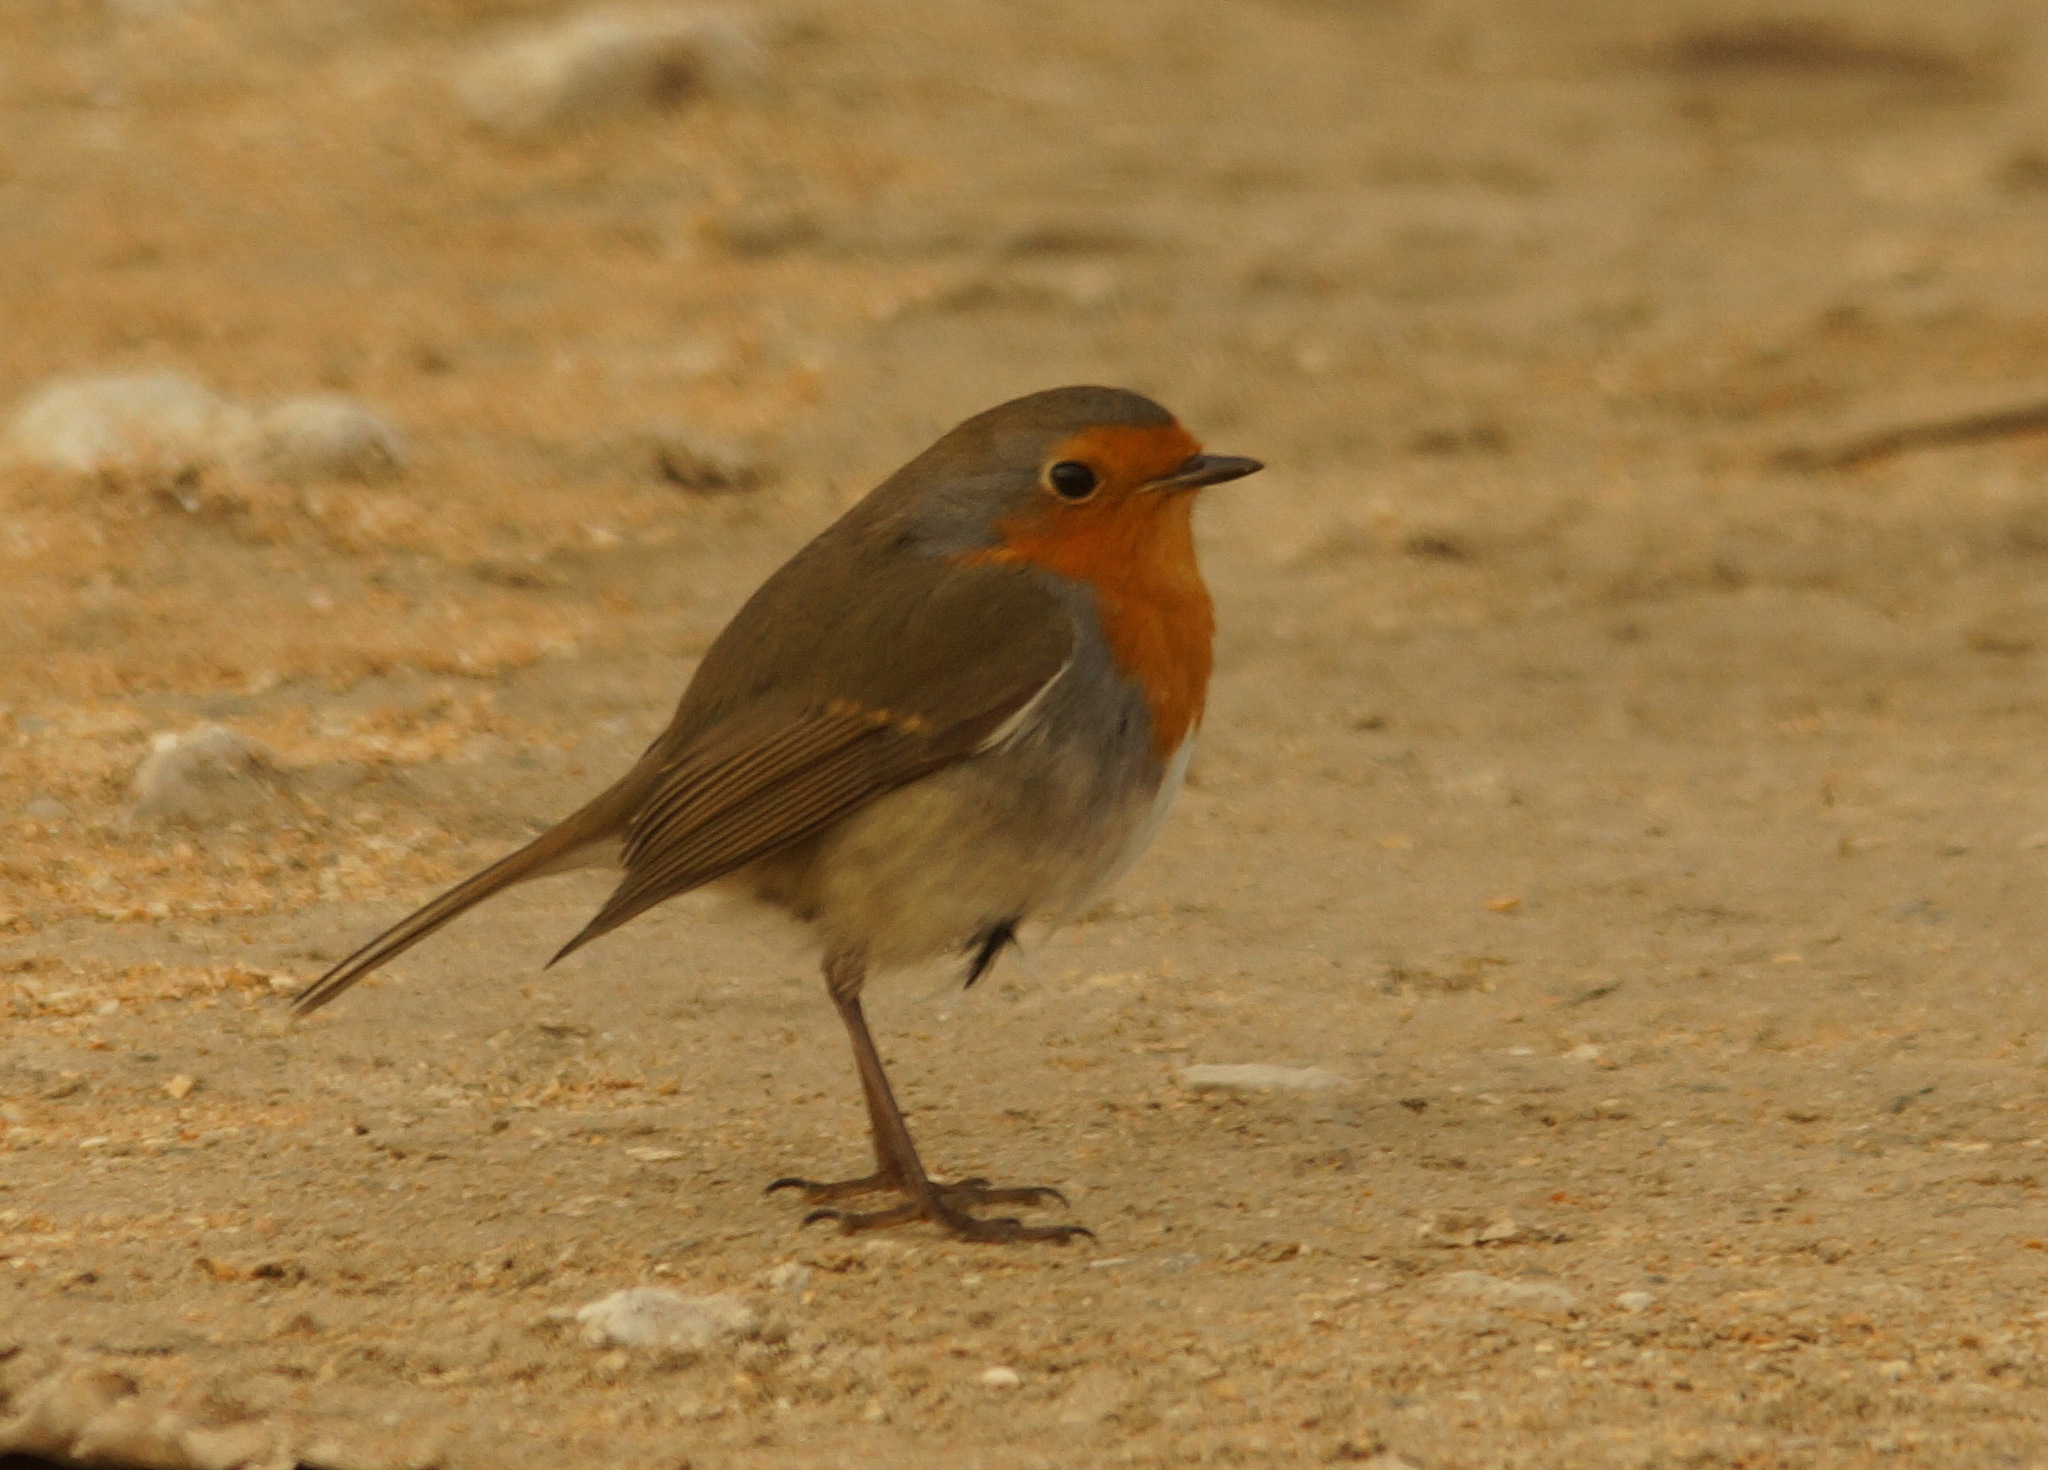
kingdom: Animalia
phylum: Chordata
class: Aves
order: Passeriformes
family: Muscicapidae
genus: Erithacus
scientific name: Erithacus rubecula
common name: European robin
